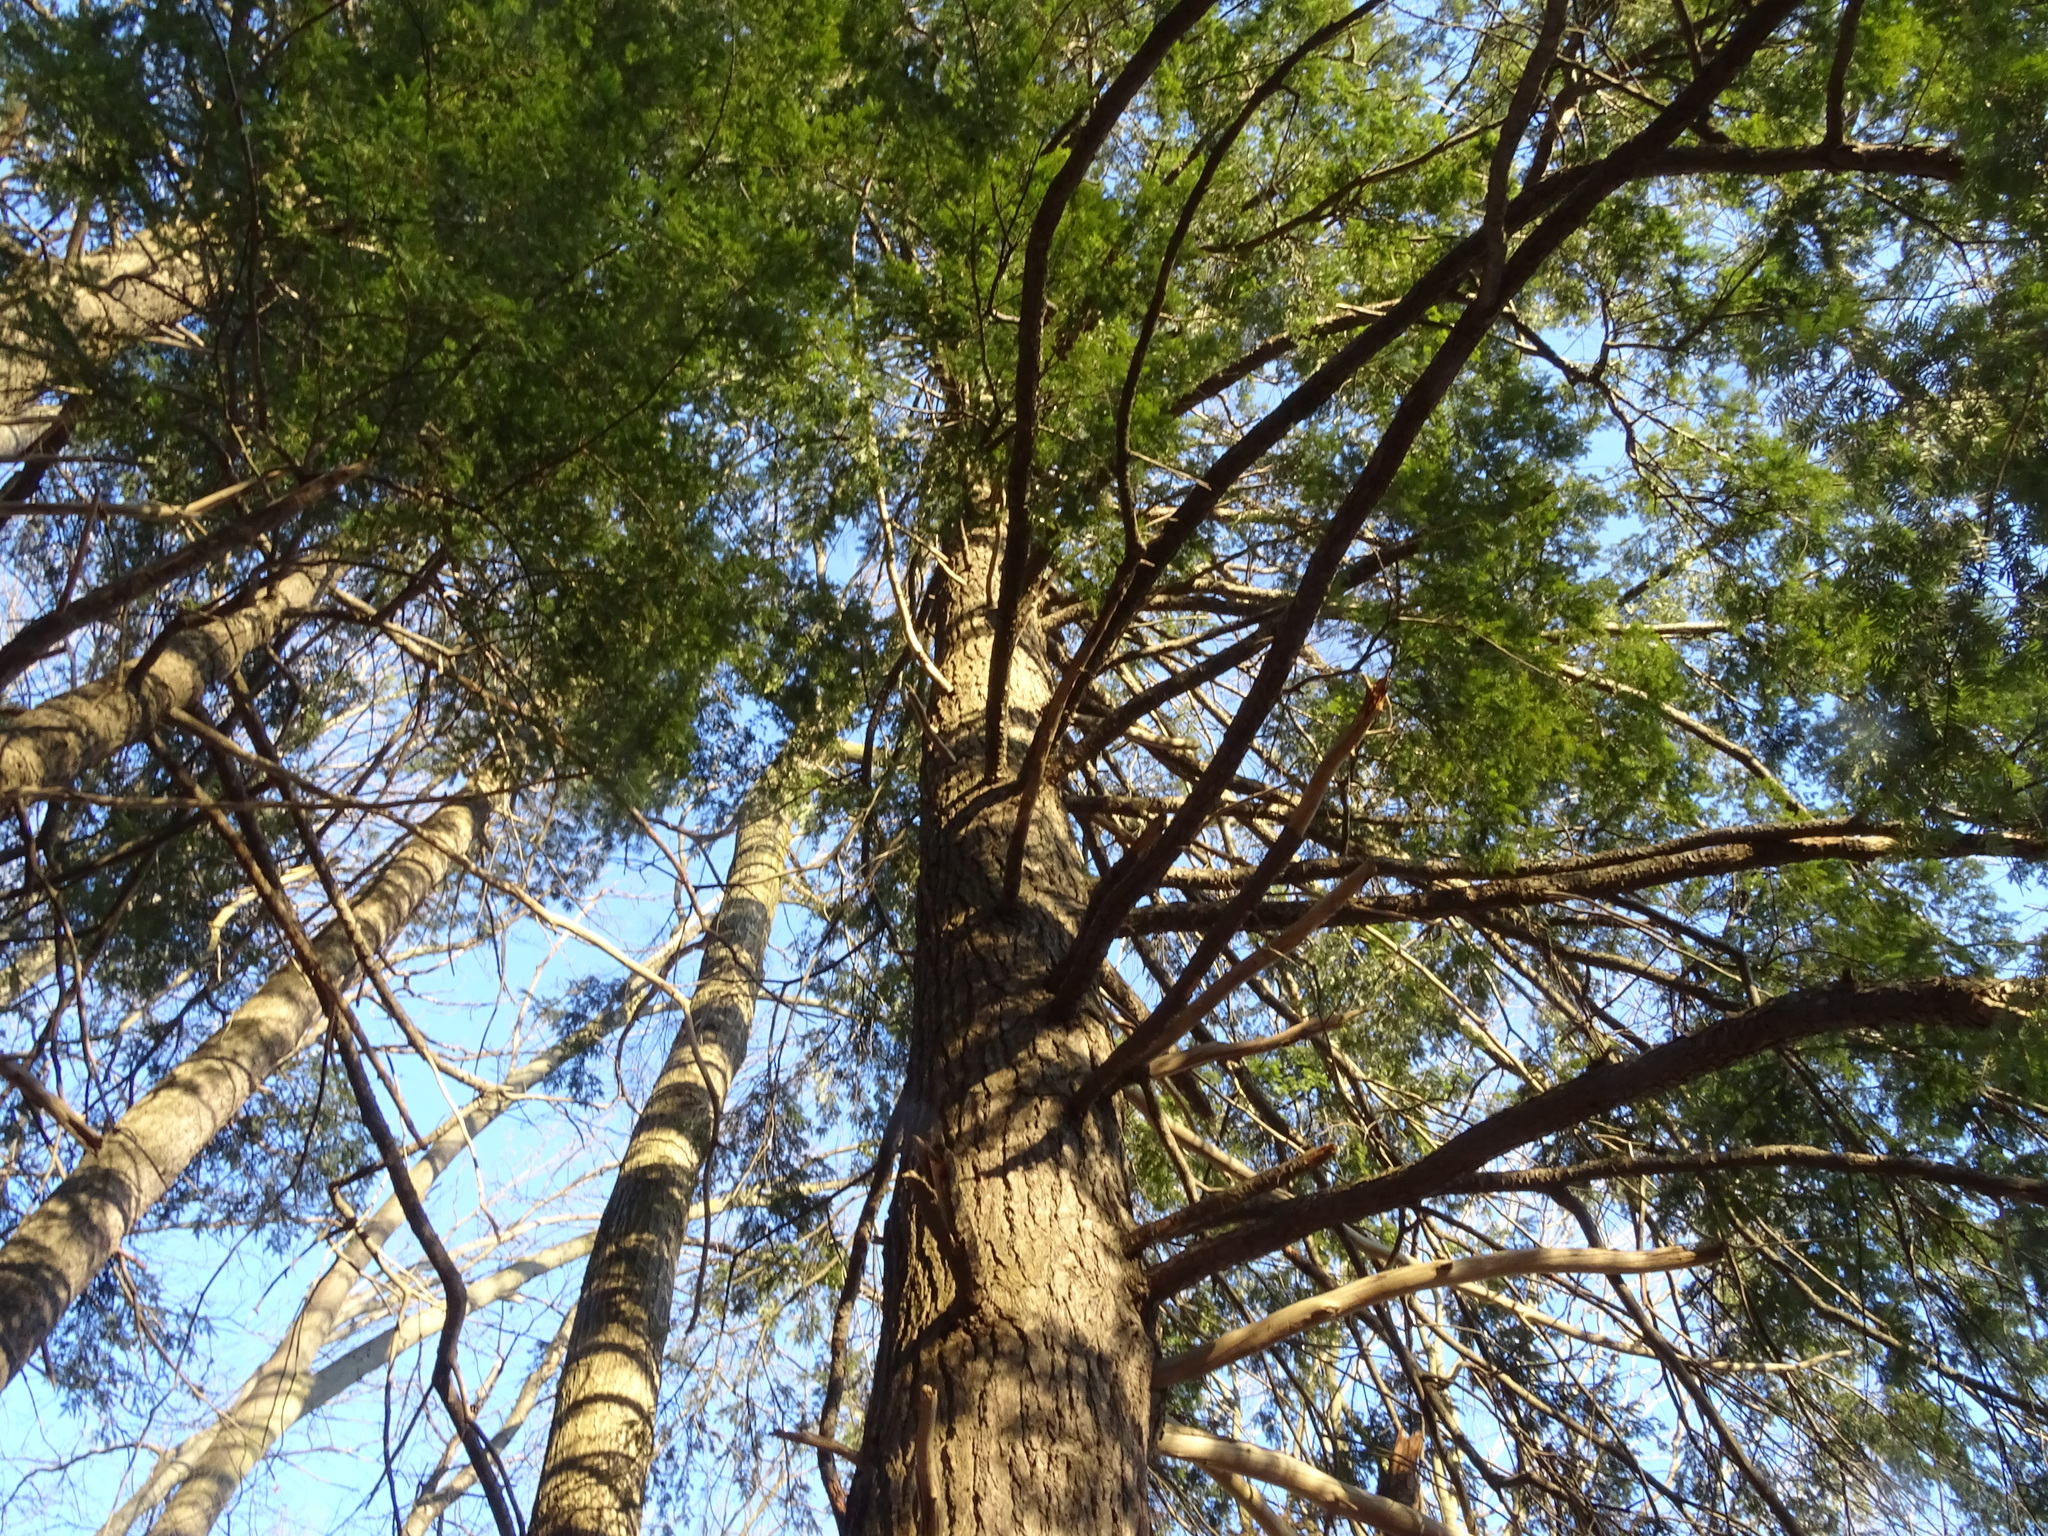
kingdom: Plantae
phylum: Tracheophyta
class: Pinopsida
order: Pinales
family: Pinaceae
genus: Tsuga
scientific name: Tsuga canadensis
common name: Eastern hemlock
